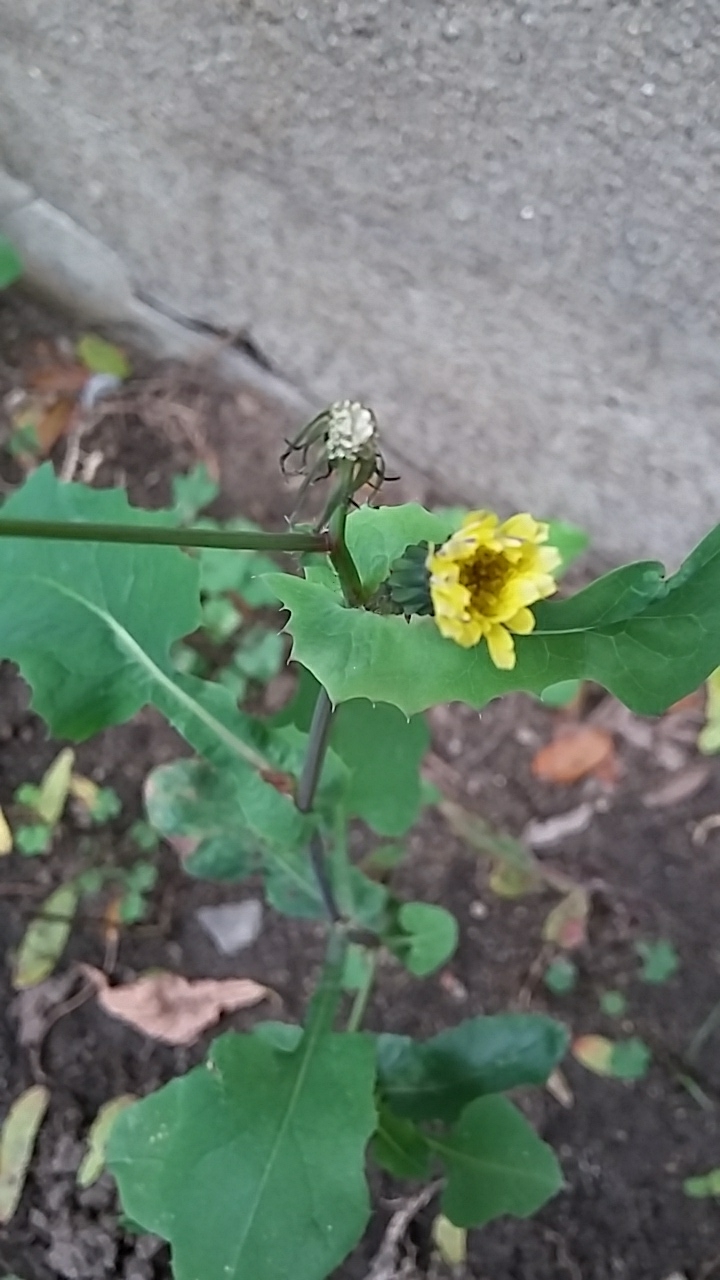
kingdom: Plantae
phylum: Tracheophyta
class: Magnoliopsida
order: Asterales
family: Asteraceae
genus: Sonchus
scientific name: Sonchus oleraceus
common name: Common sowthistle
